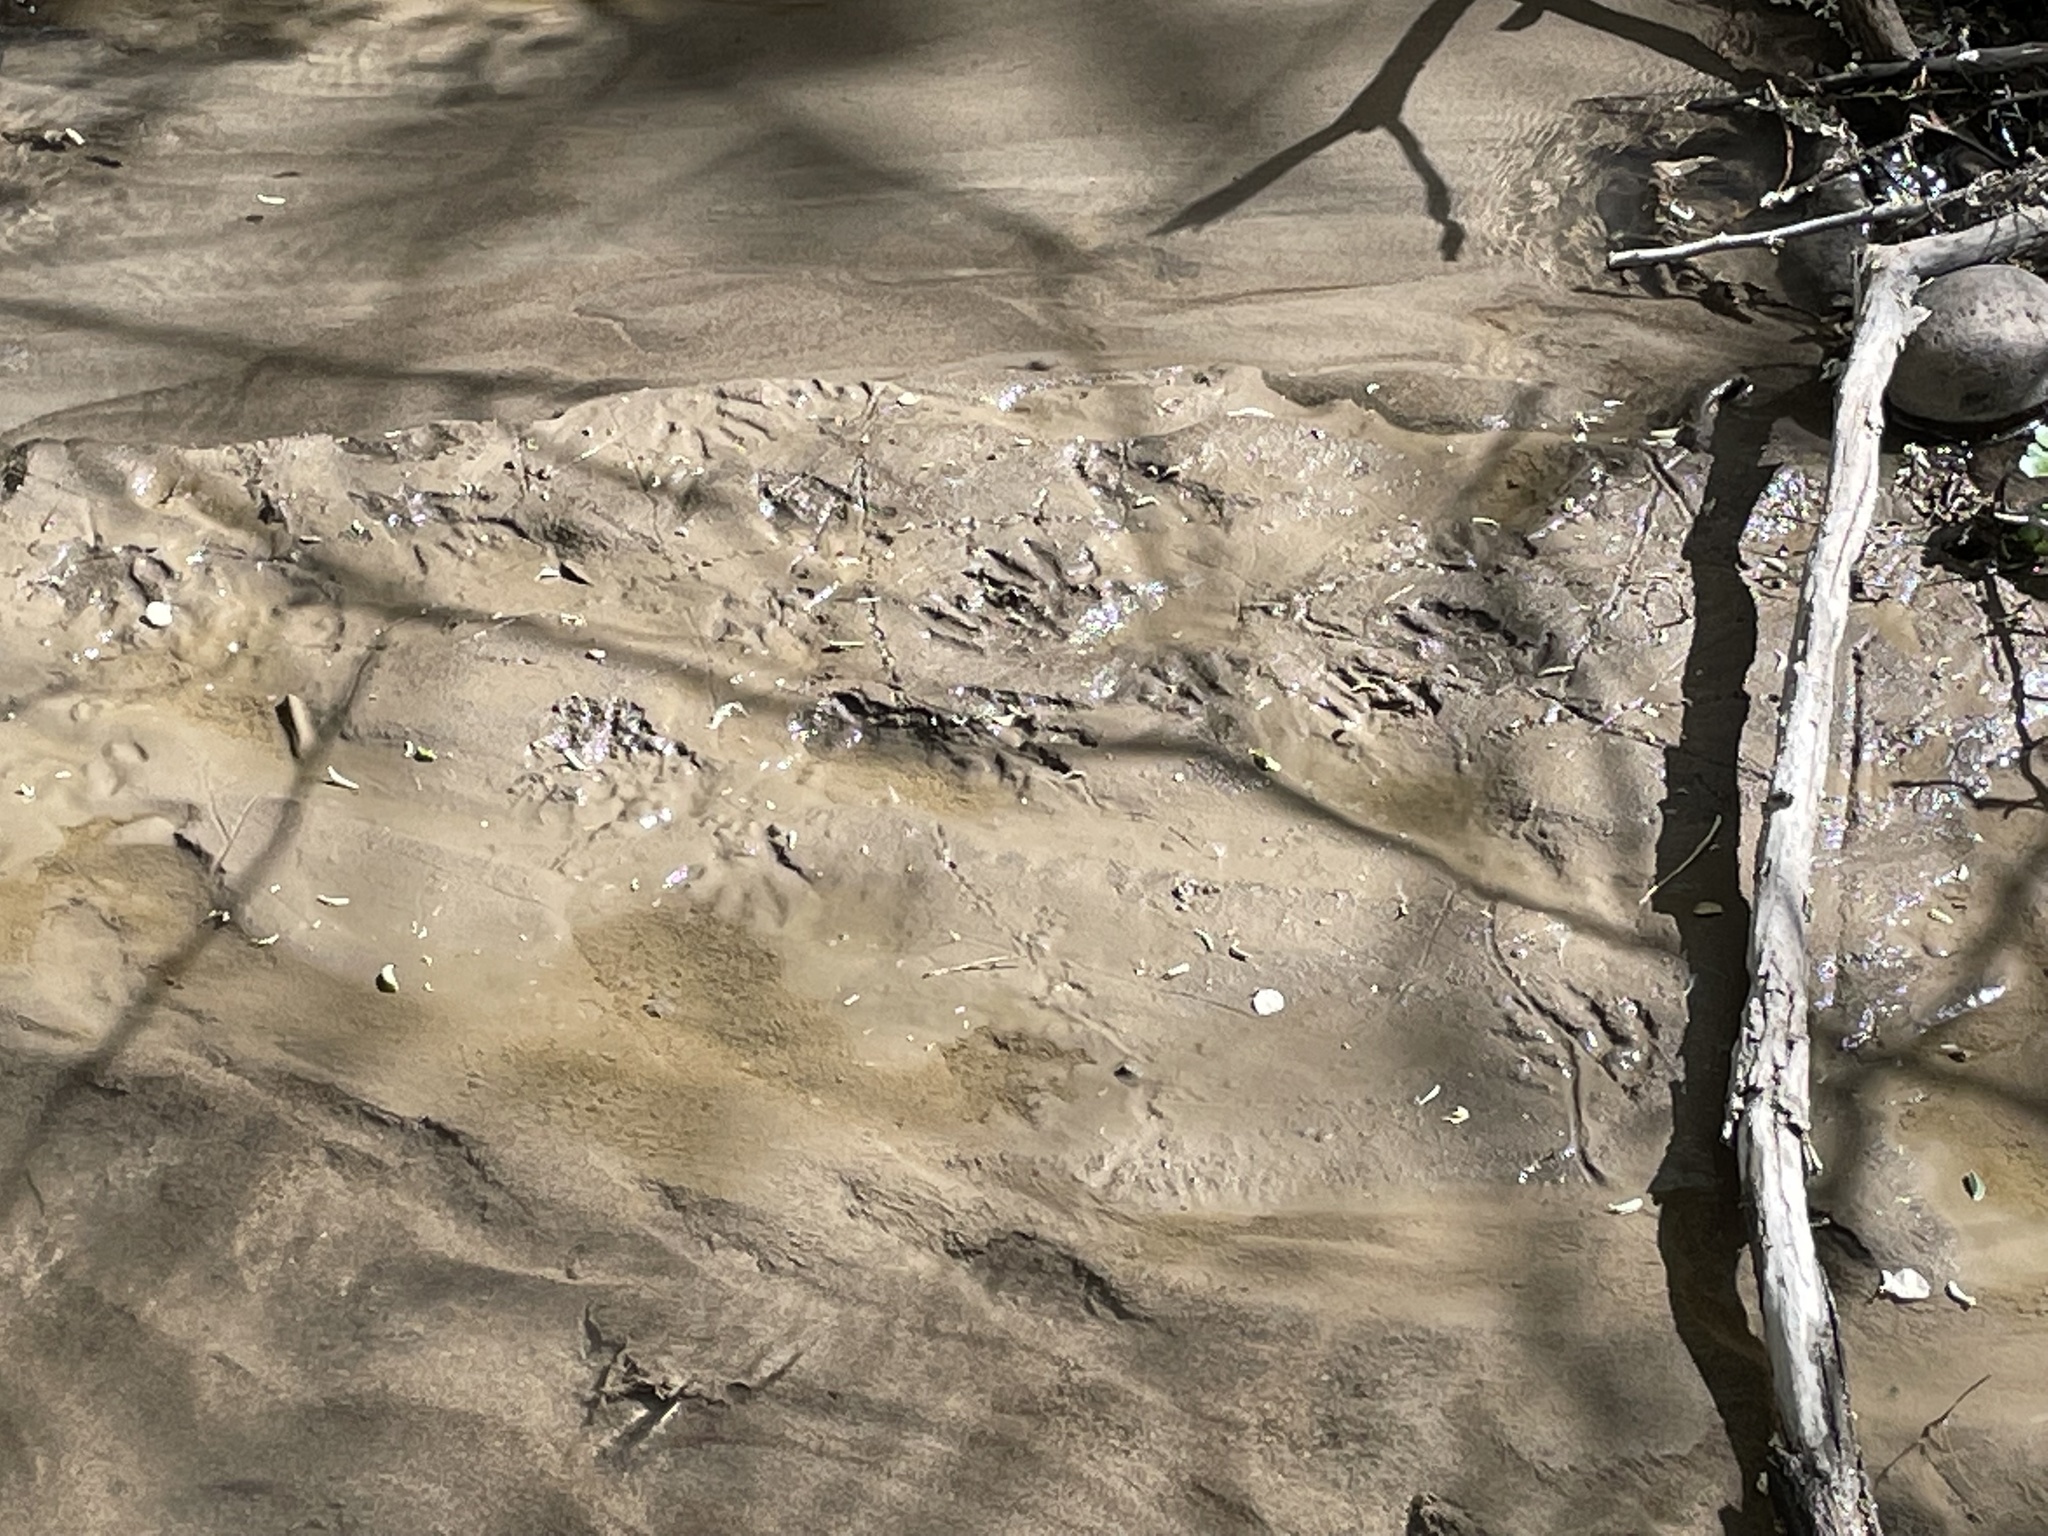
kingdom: Animalia
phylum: Chordata
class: Mammalia
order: Carnivora
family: Procyonidae
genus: Procyon
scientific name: Procyon lotor
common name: Raccoon
